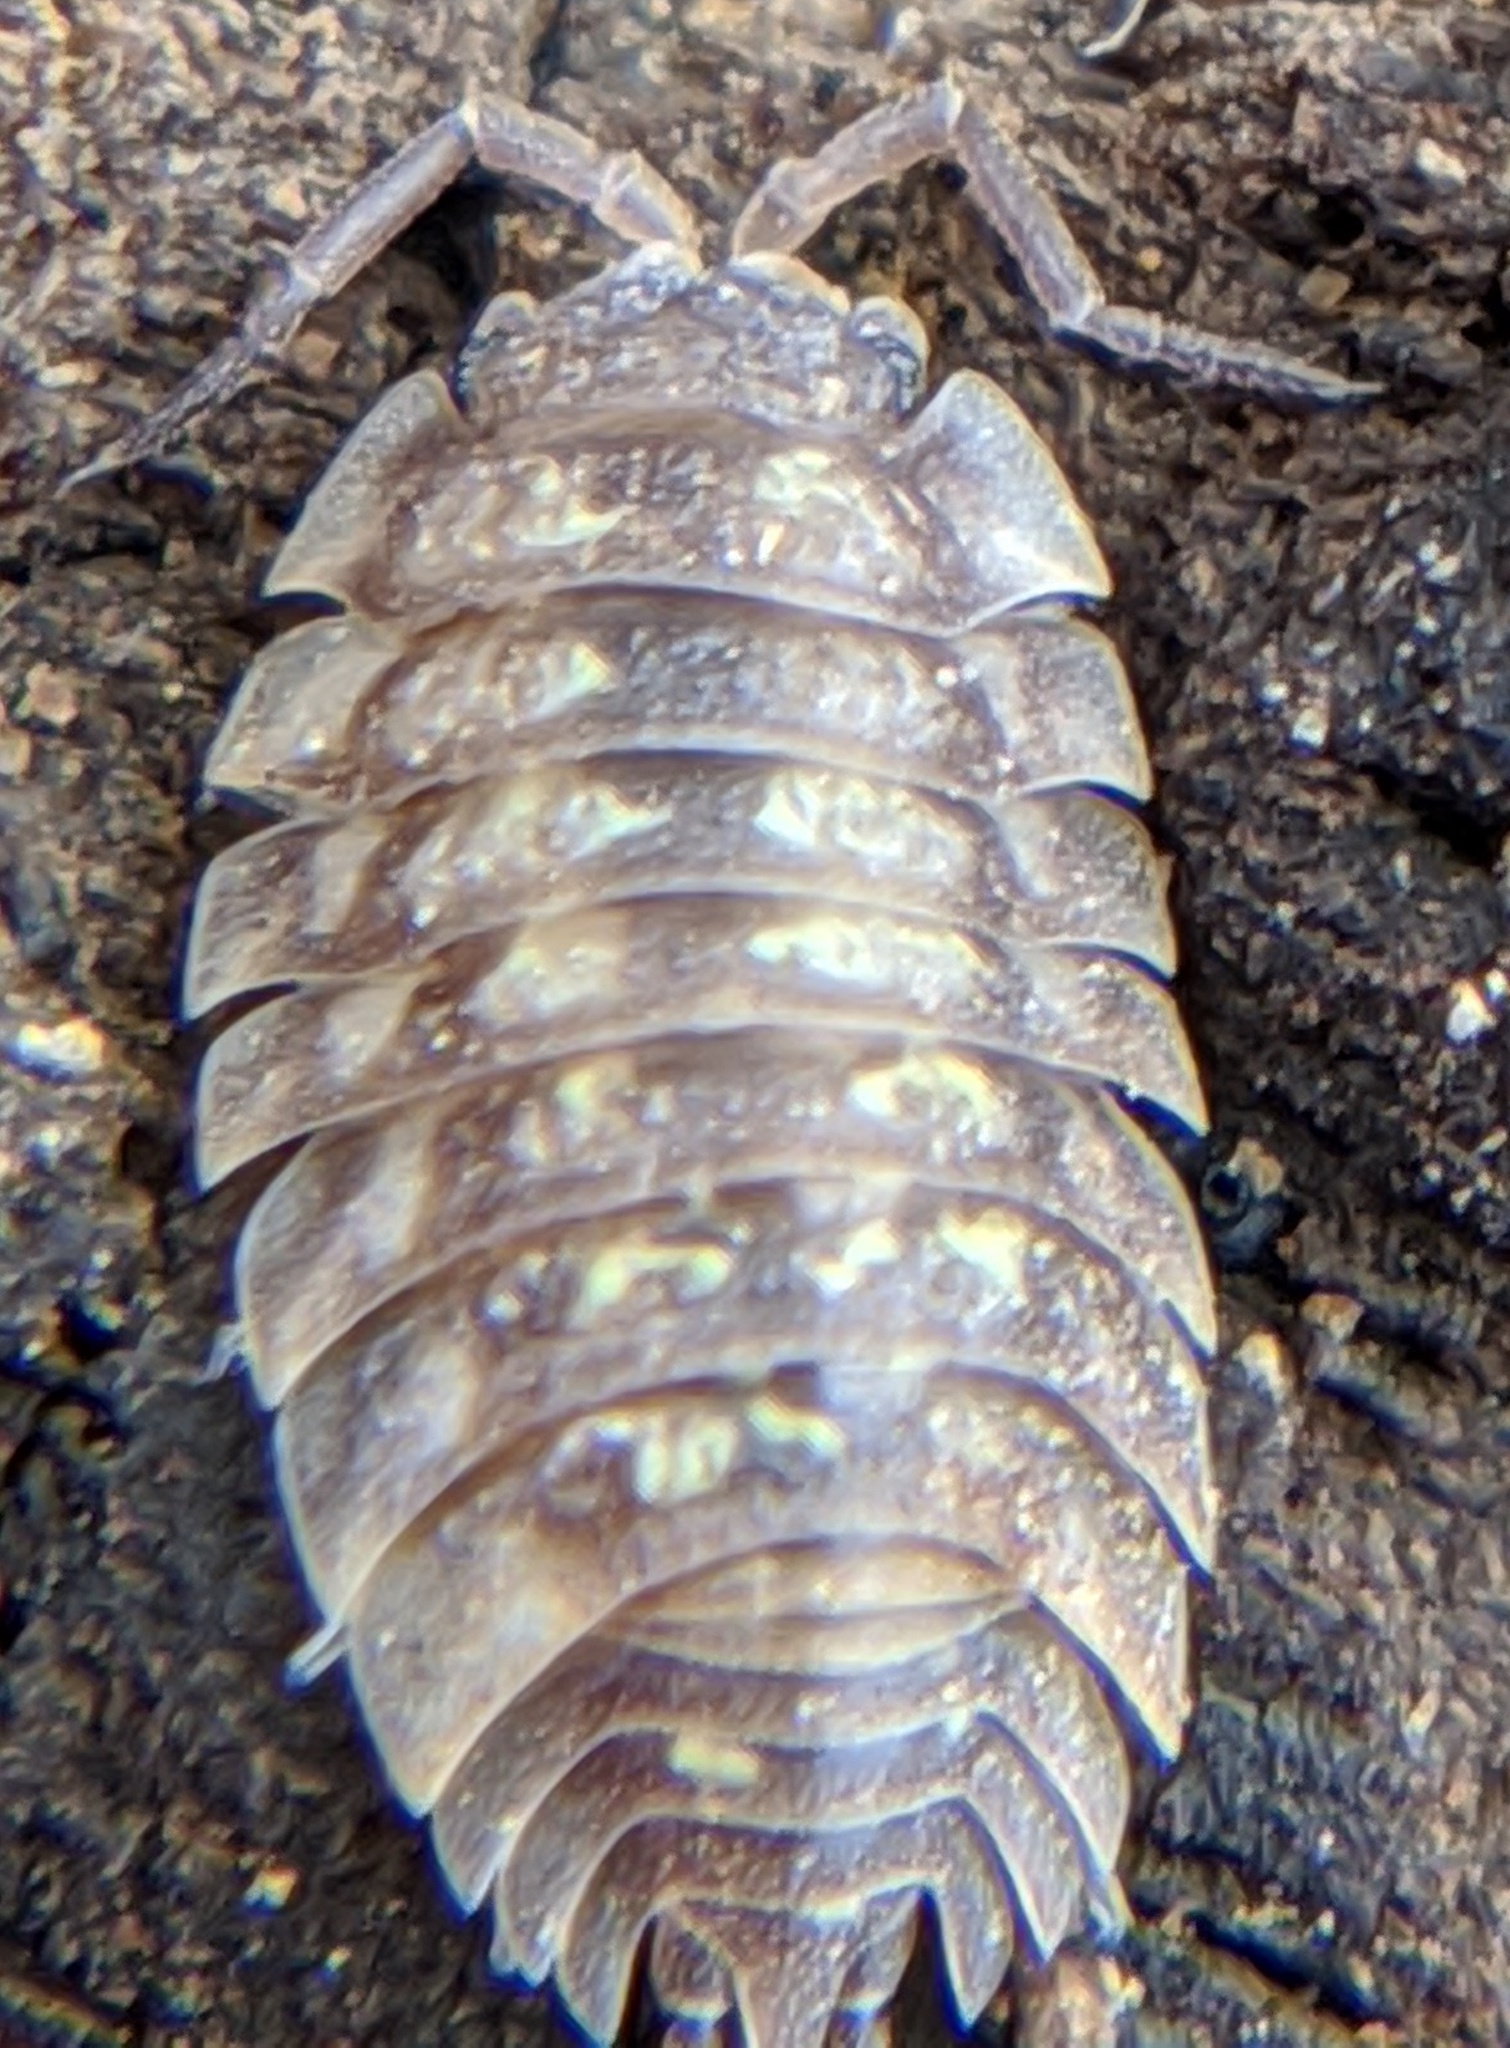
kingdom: Animalia
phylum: Arthropoda
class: Malacostraca
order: Isopoda
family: Oniscidae
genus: Oniscus
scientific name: Oniscus asellus
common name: Common shiny woodlouse
